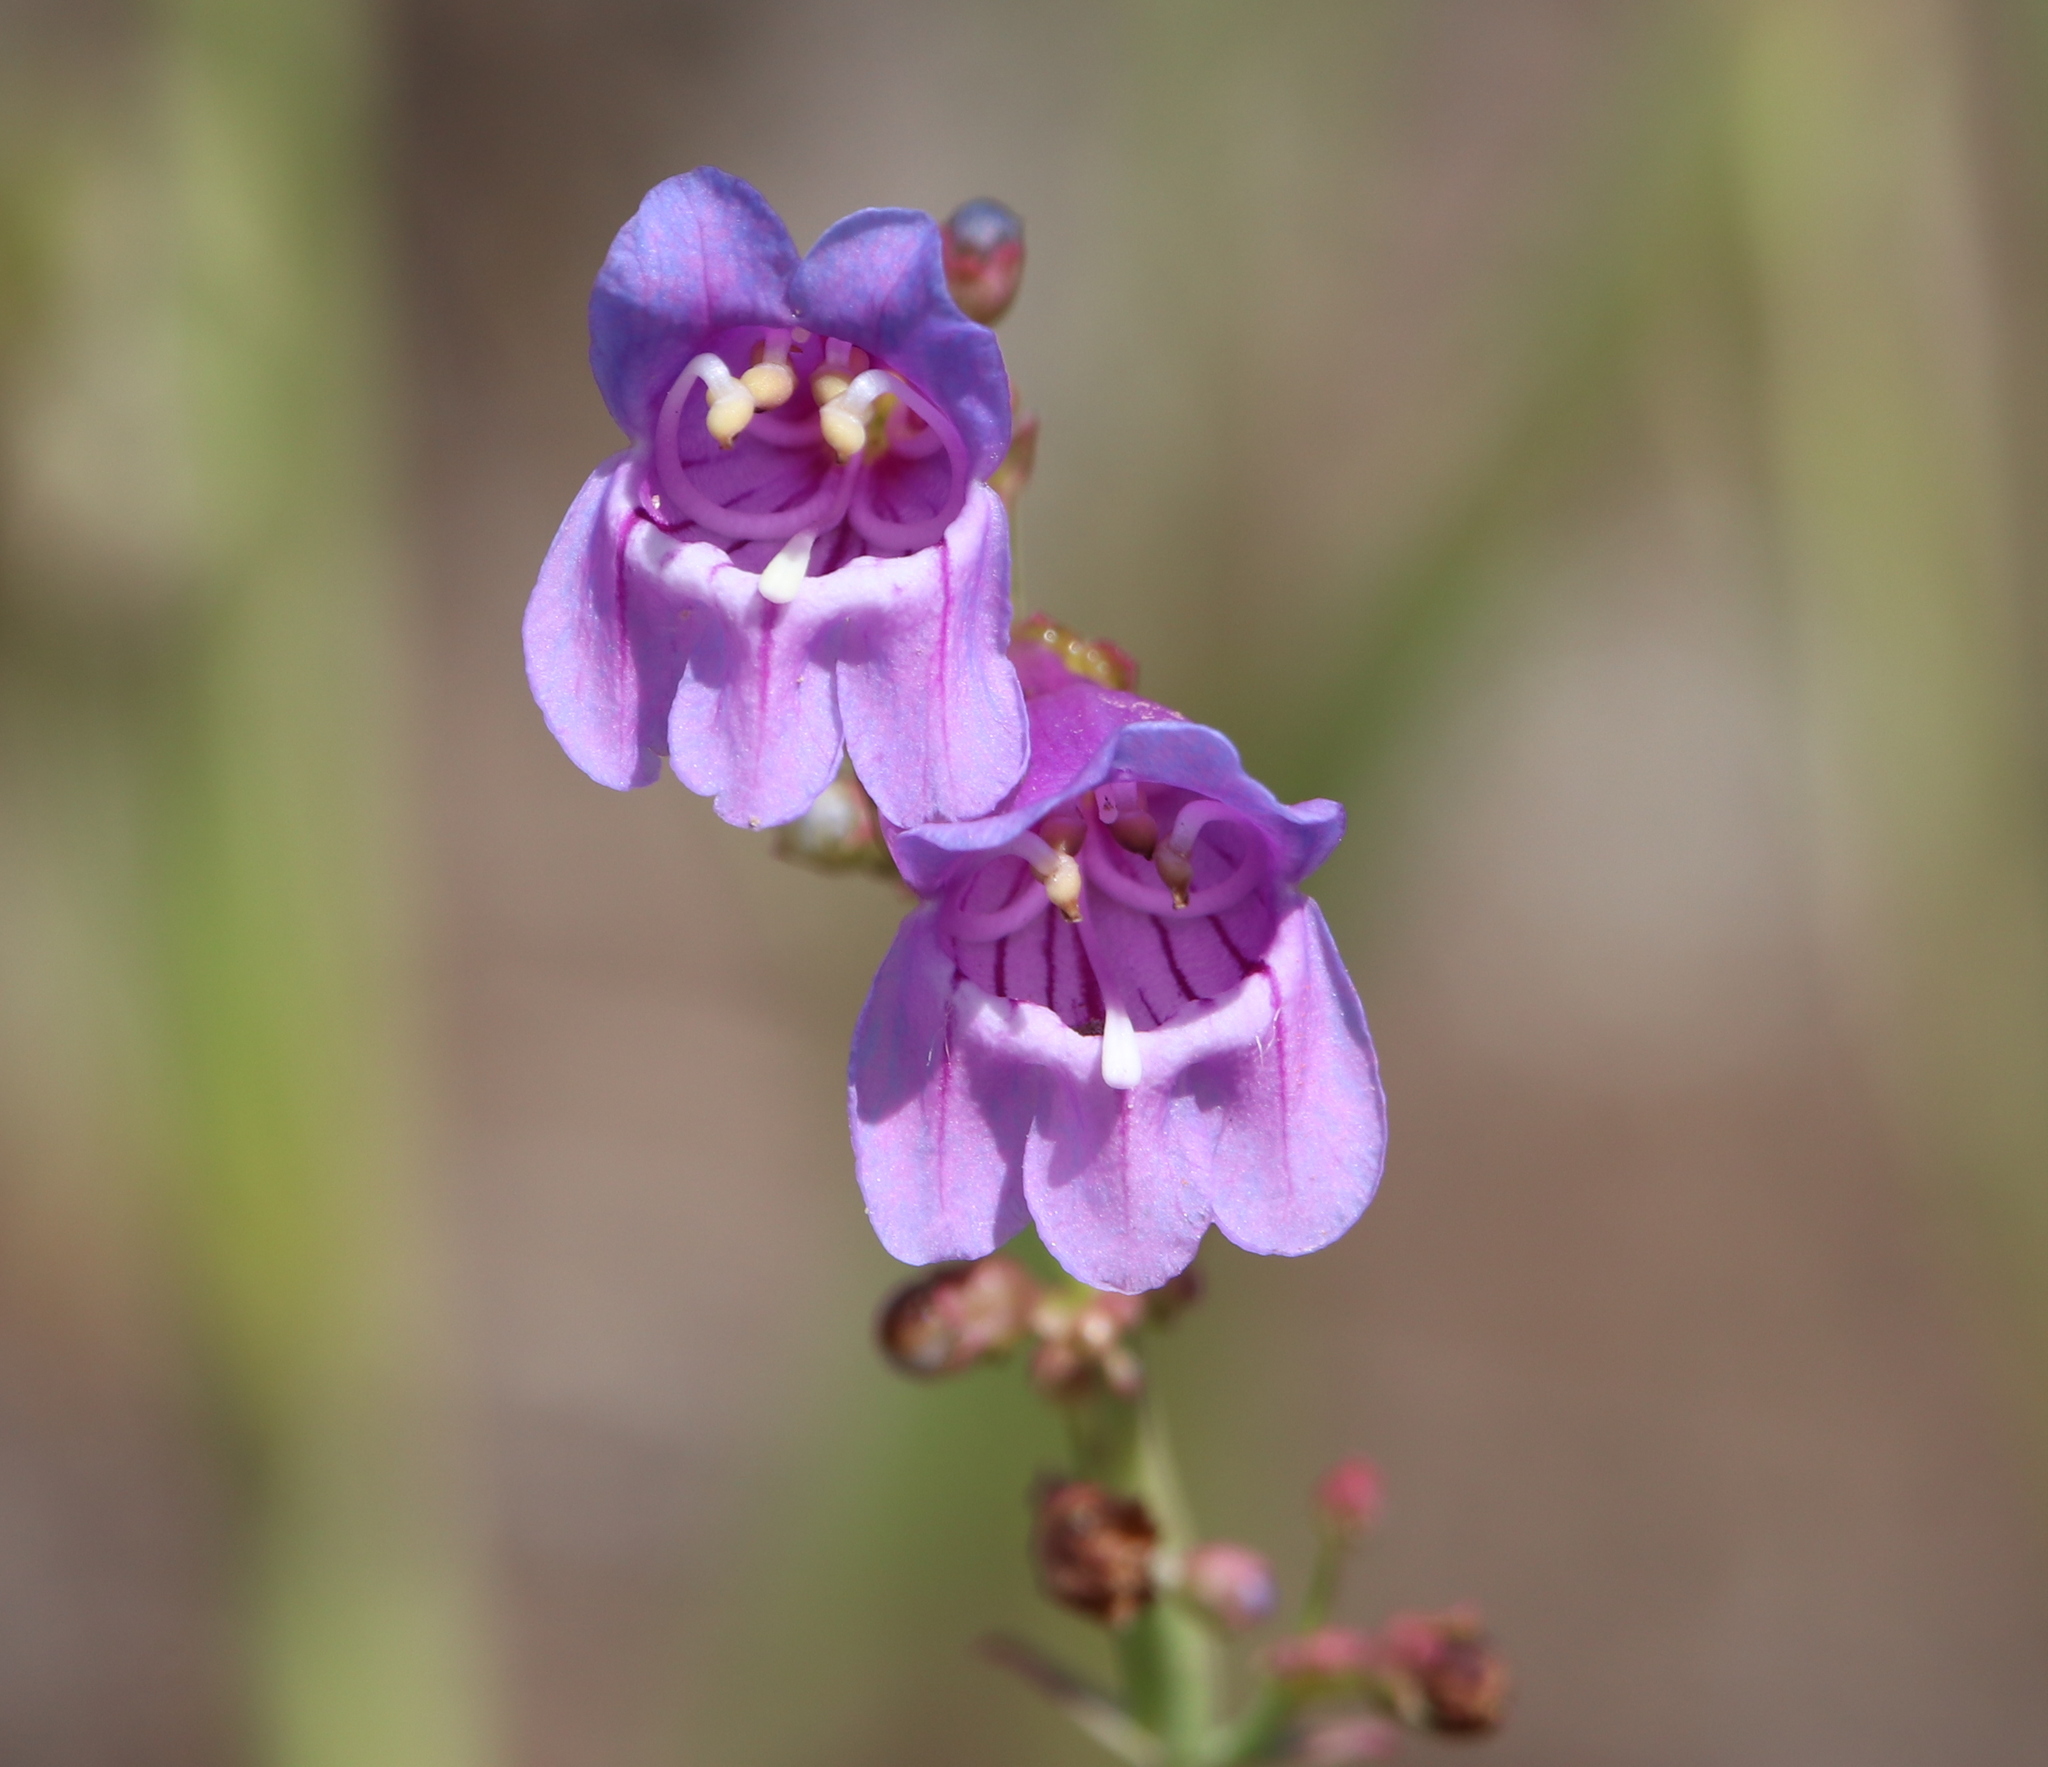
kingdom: Plantae
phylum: Tracheophyta
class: Magnoliopsida
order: Lamiales
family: Plantaginaceae
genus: Penstemon
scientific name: Penstemon virgatus
